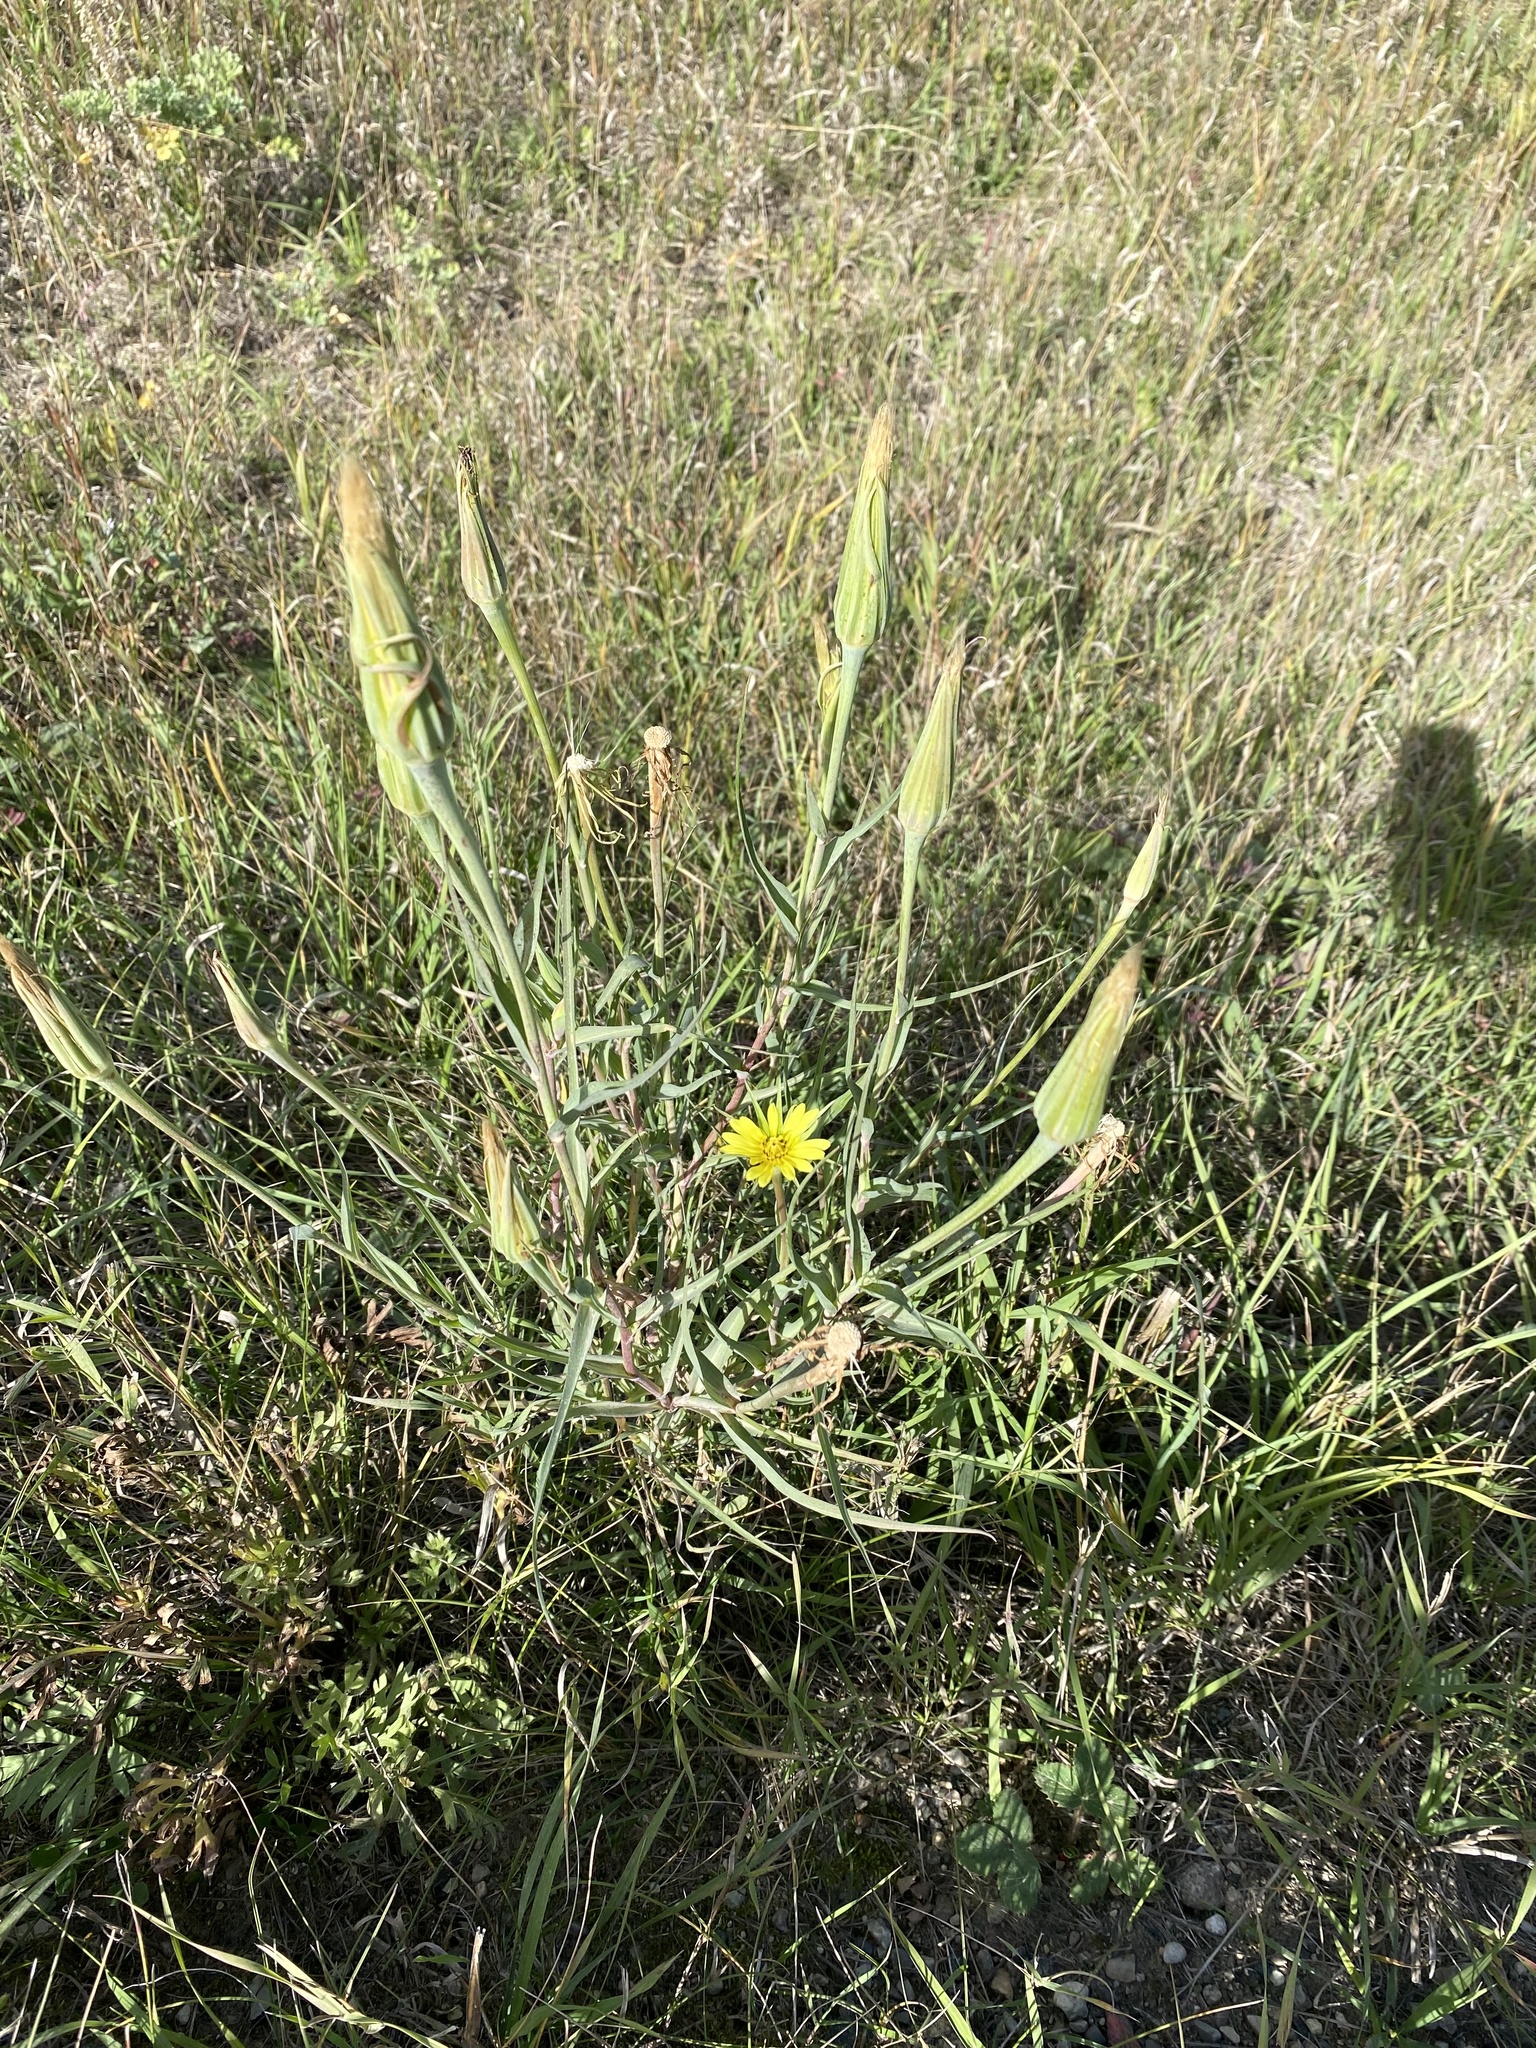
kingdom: Plantae
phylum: Tracheophyta
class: Magnoliopsida
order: Asterales
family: Asteraceae
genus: Tragopogon
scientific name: Tragopogon dubius
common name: Yellow salsify
